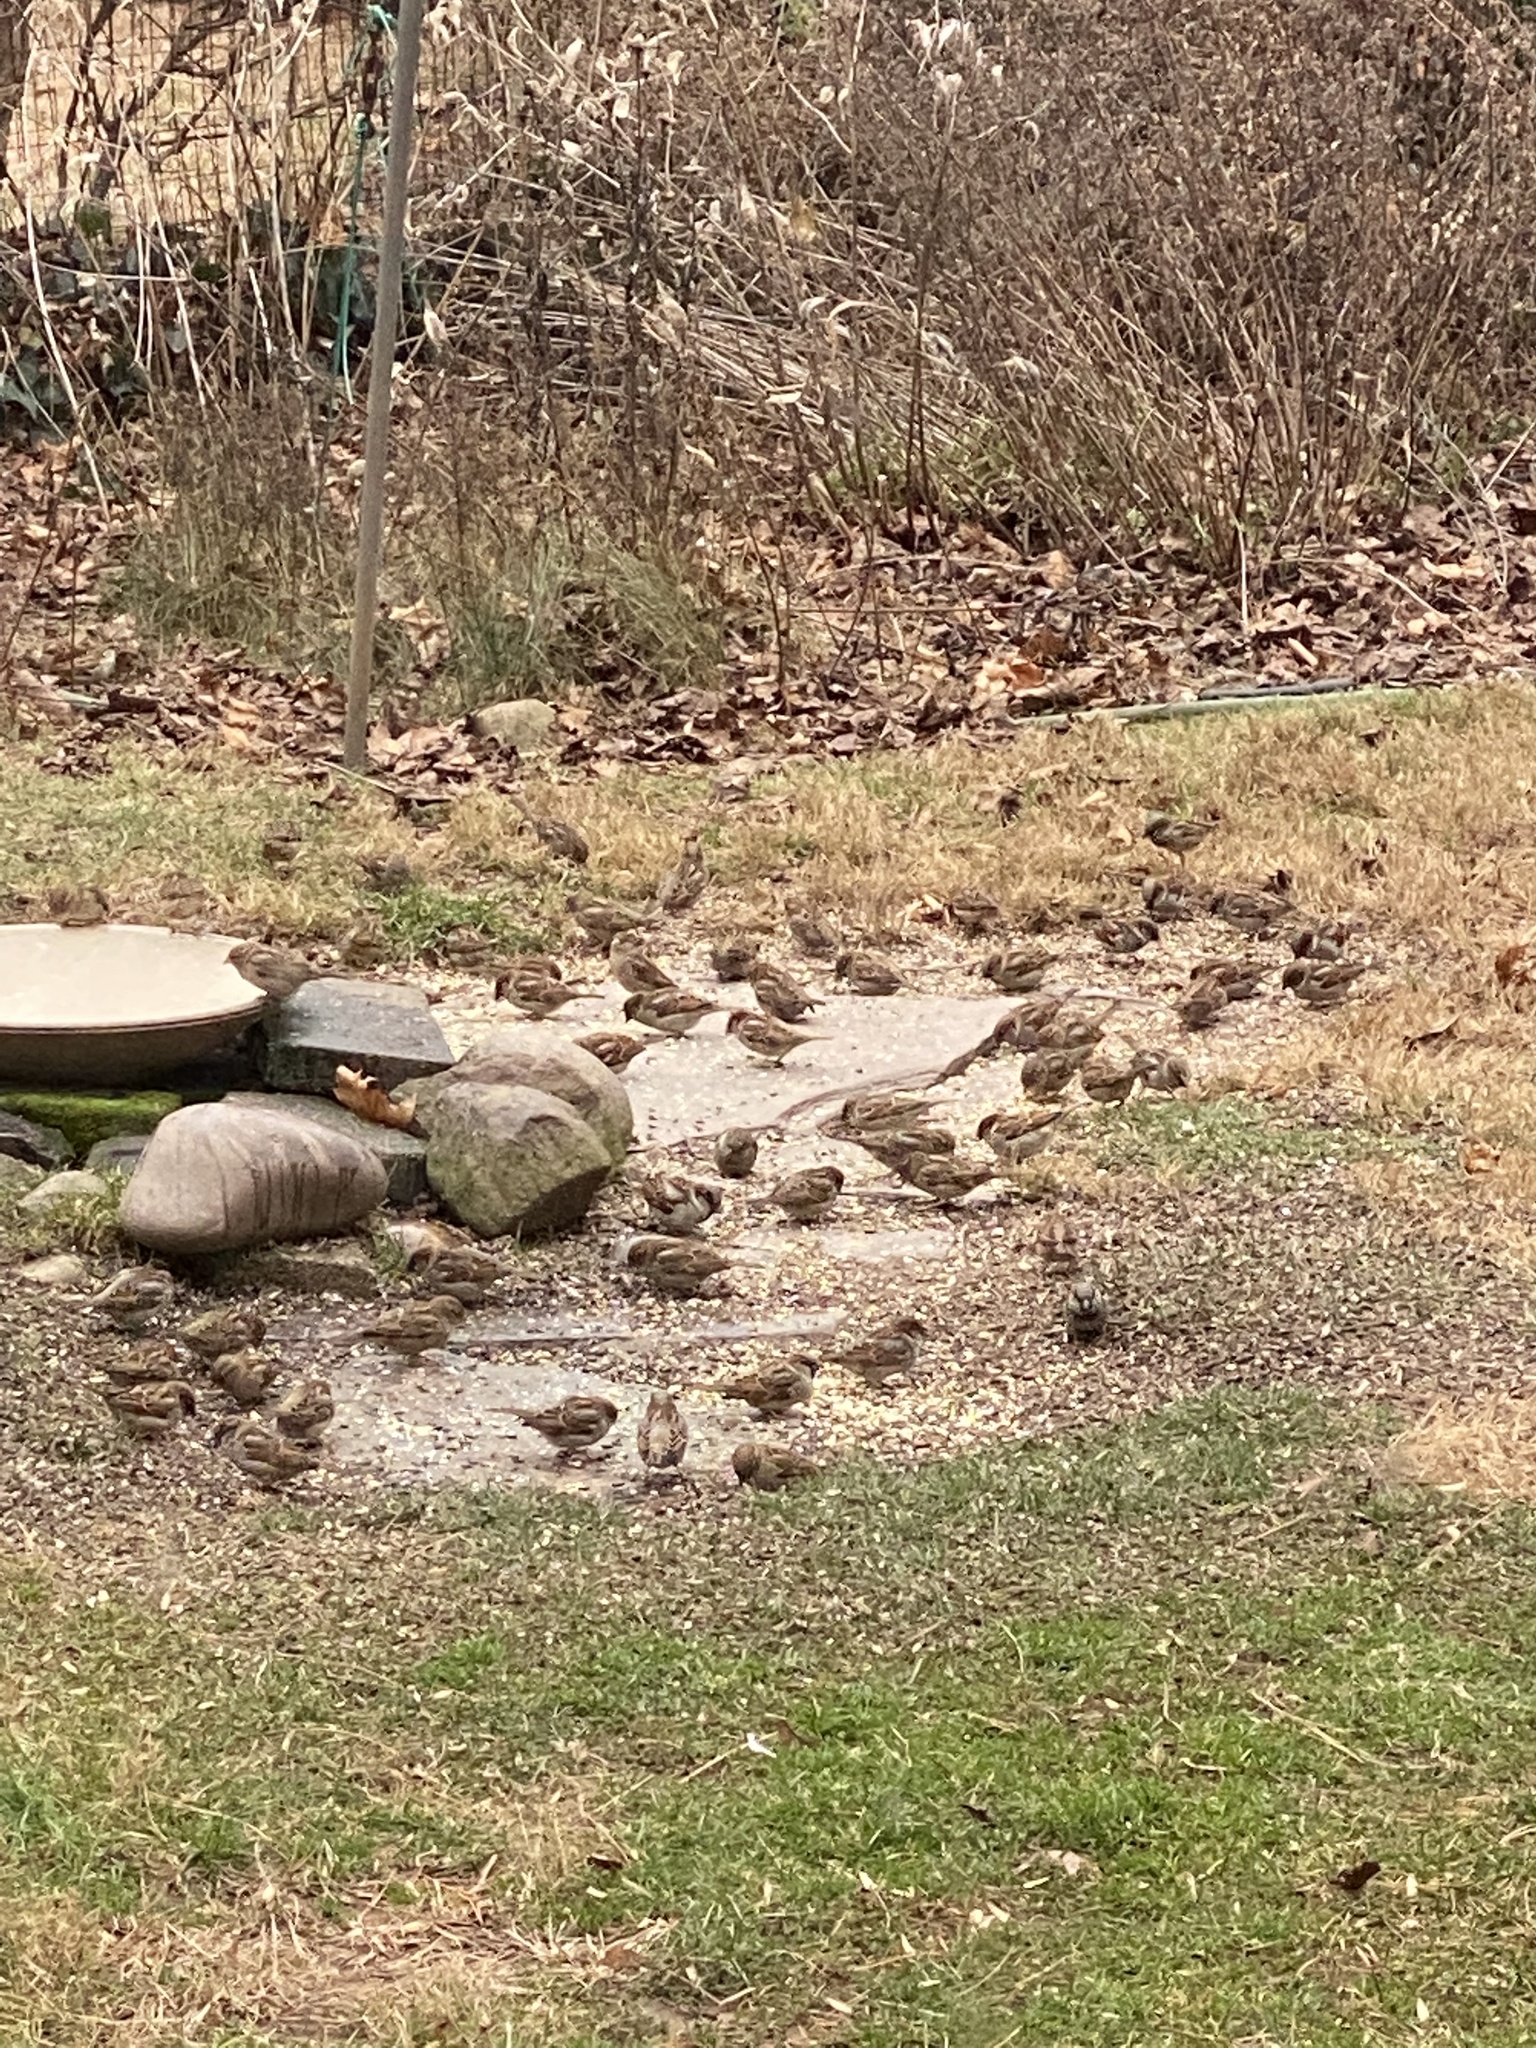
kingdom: Animalia
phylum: Chordata
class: Aves
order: Passeriformes
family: Passeridae
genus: Passer
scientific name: Passer domesticus
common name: House sparrow
